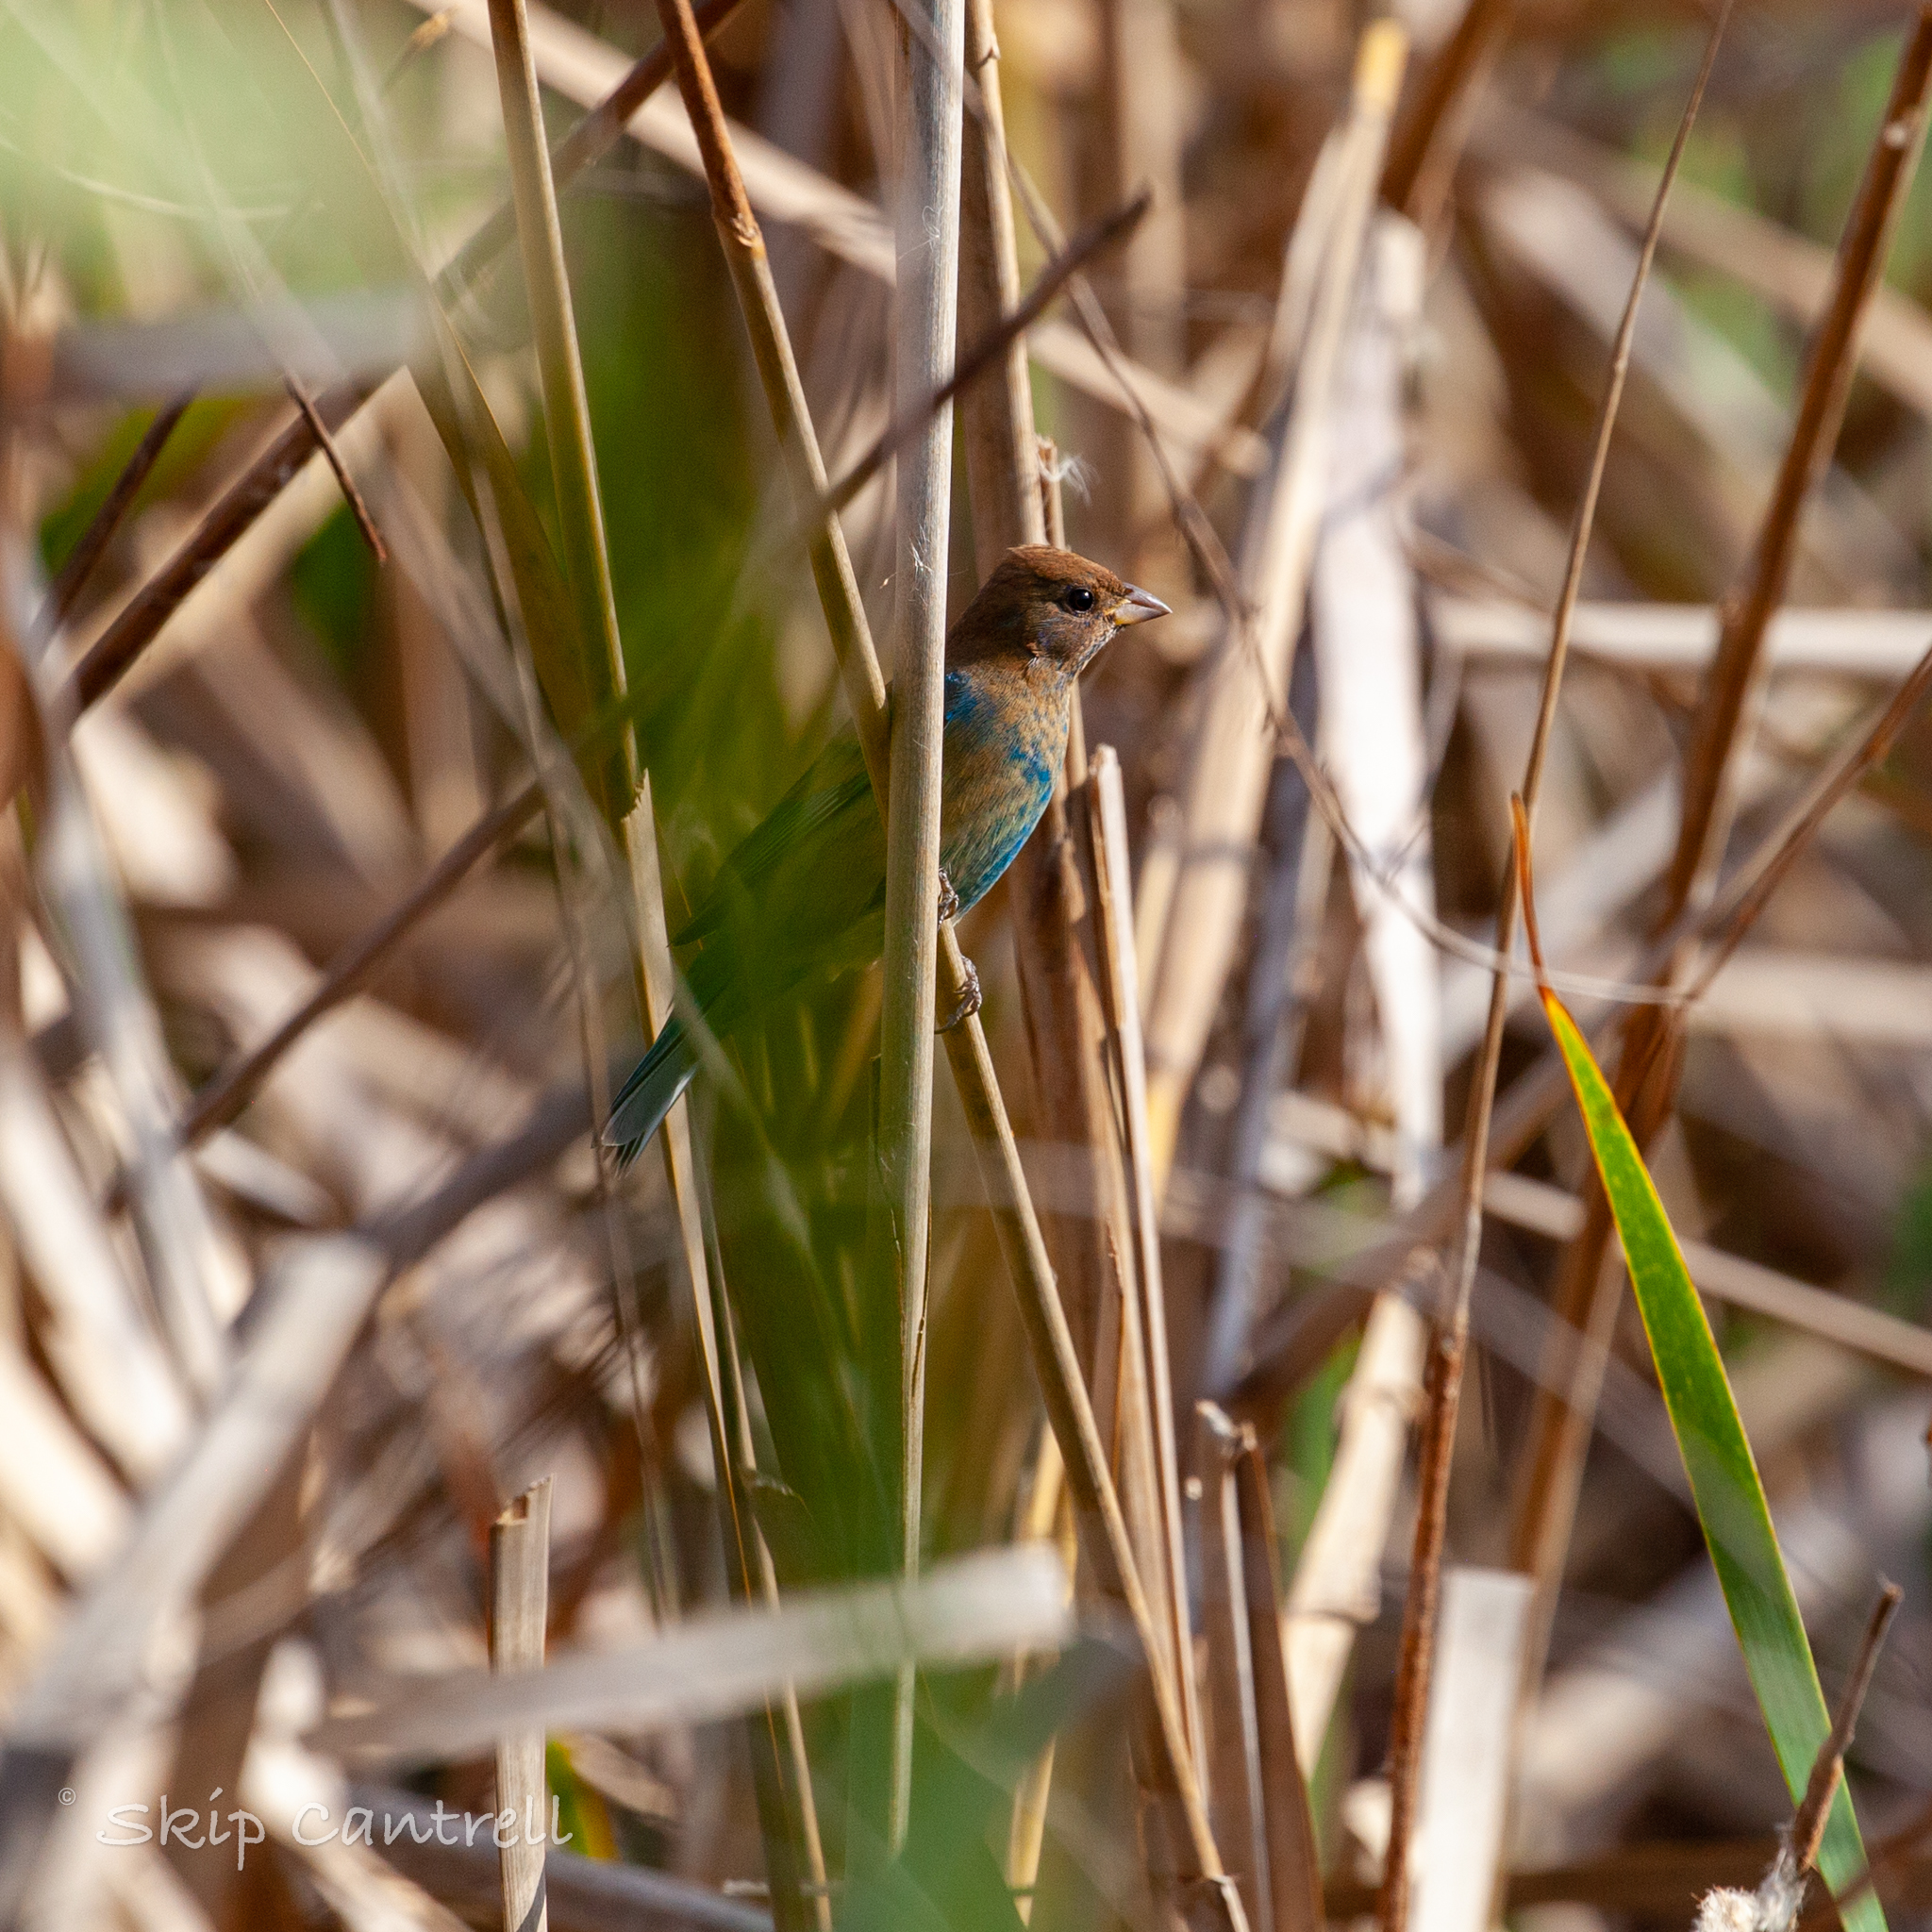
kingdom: Animalia
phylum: Chordata
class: Aves
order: Passeriformes
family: Cardinalidae
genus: Passerina
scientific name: Passerina cyanea
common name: Indigo bunting
